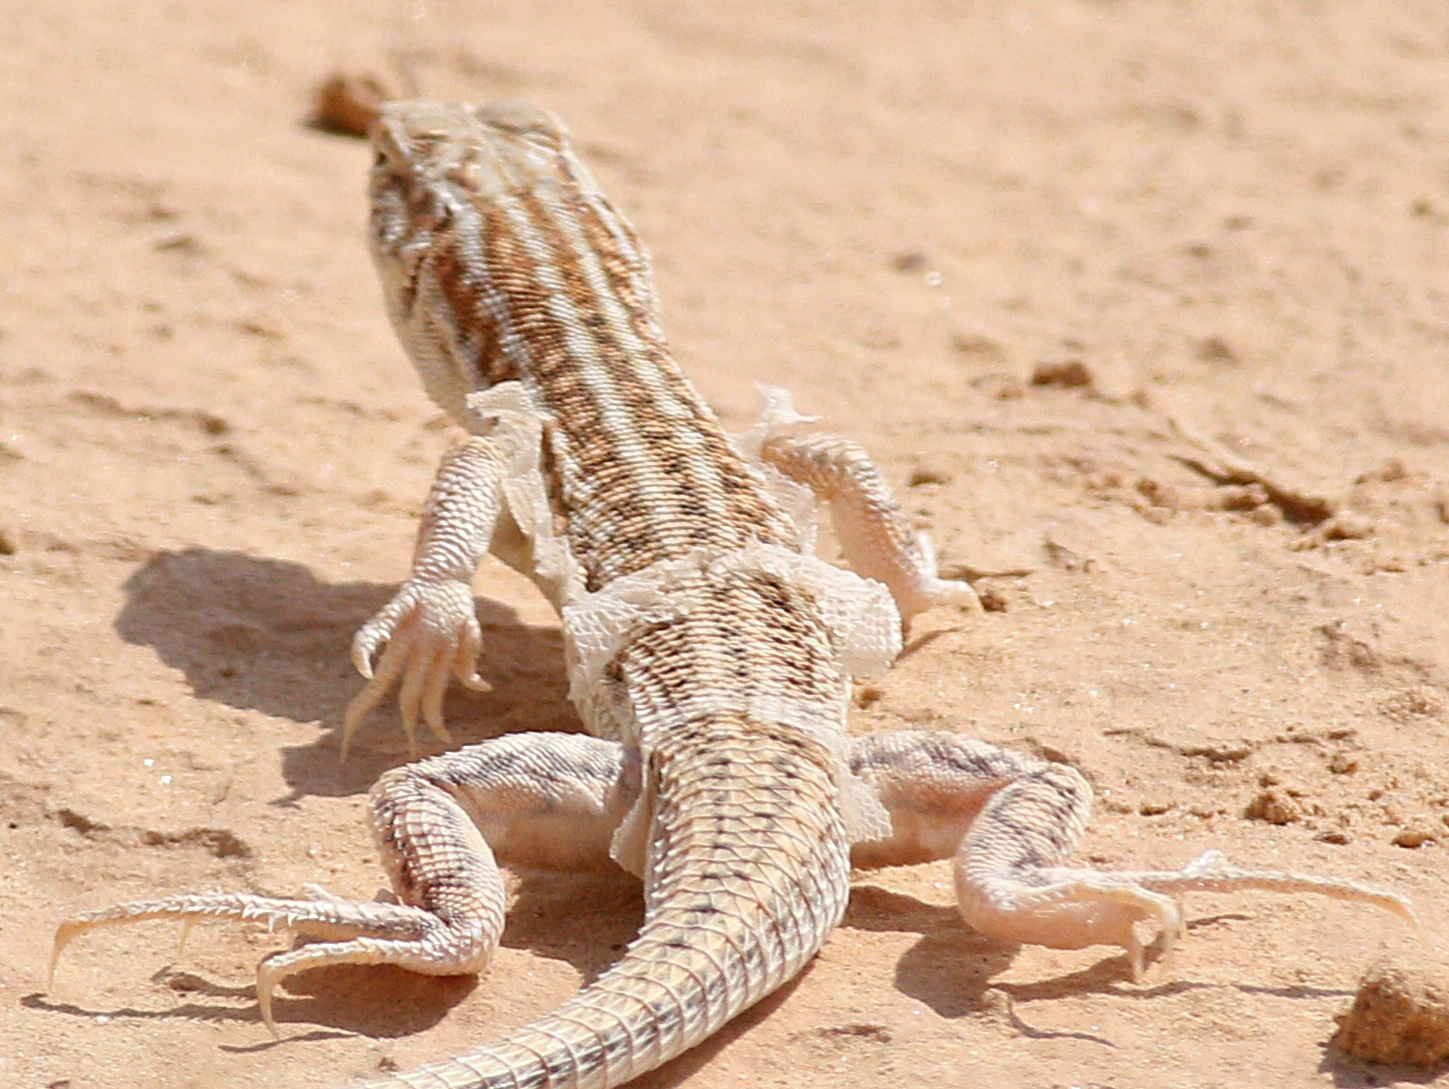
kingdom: Animalia
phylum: Chordata
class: Squamata
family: Lacertidae
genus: Acanthodactylus
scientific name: Acanthodactylus opheodurus
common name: Arnold's fringe-fingered lizard
